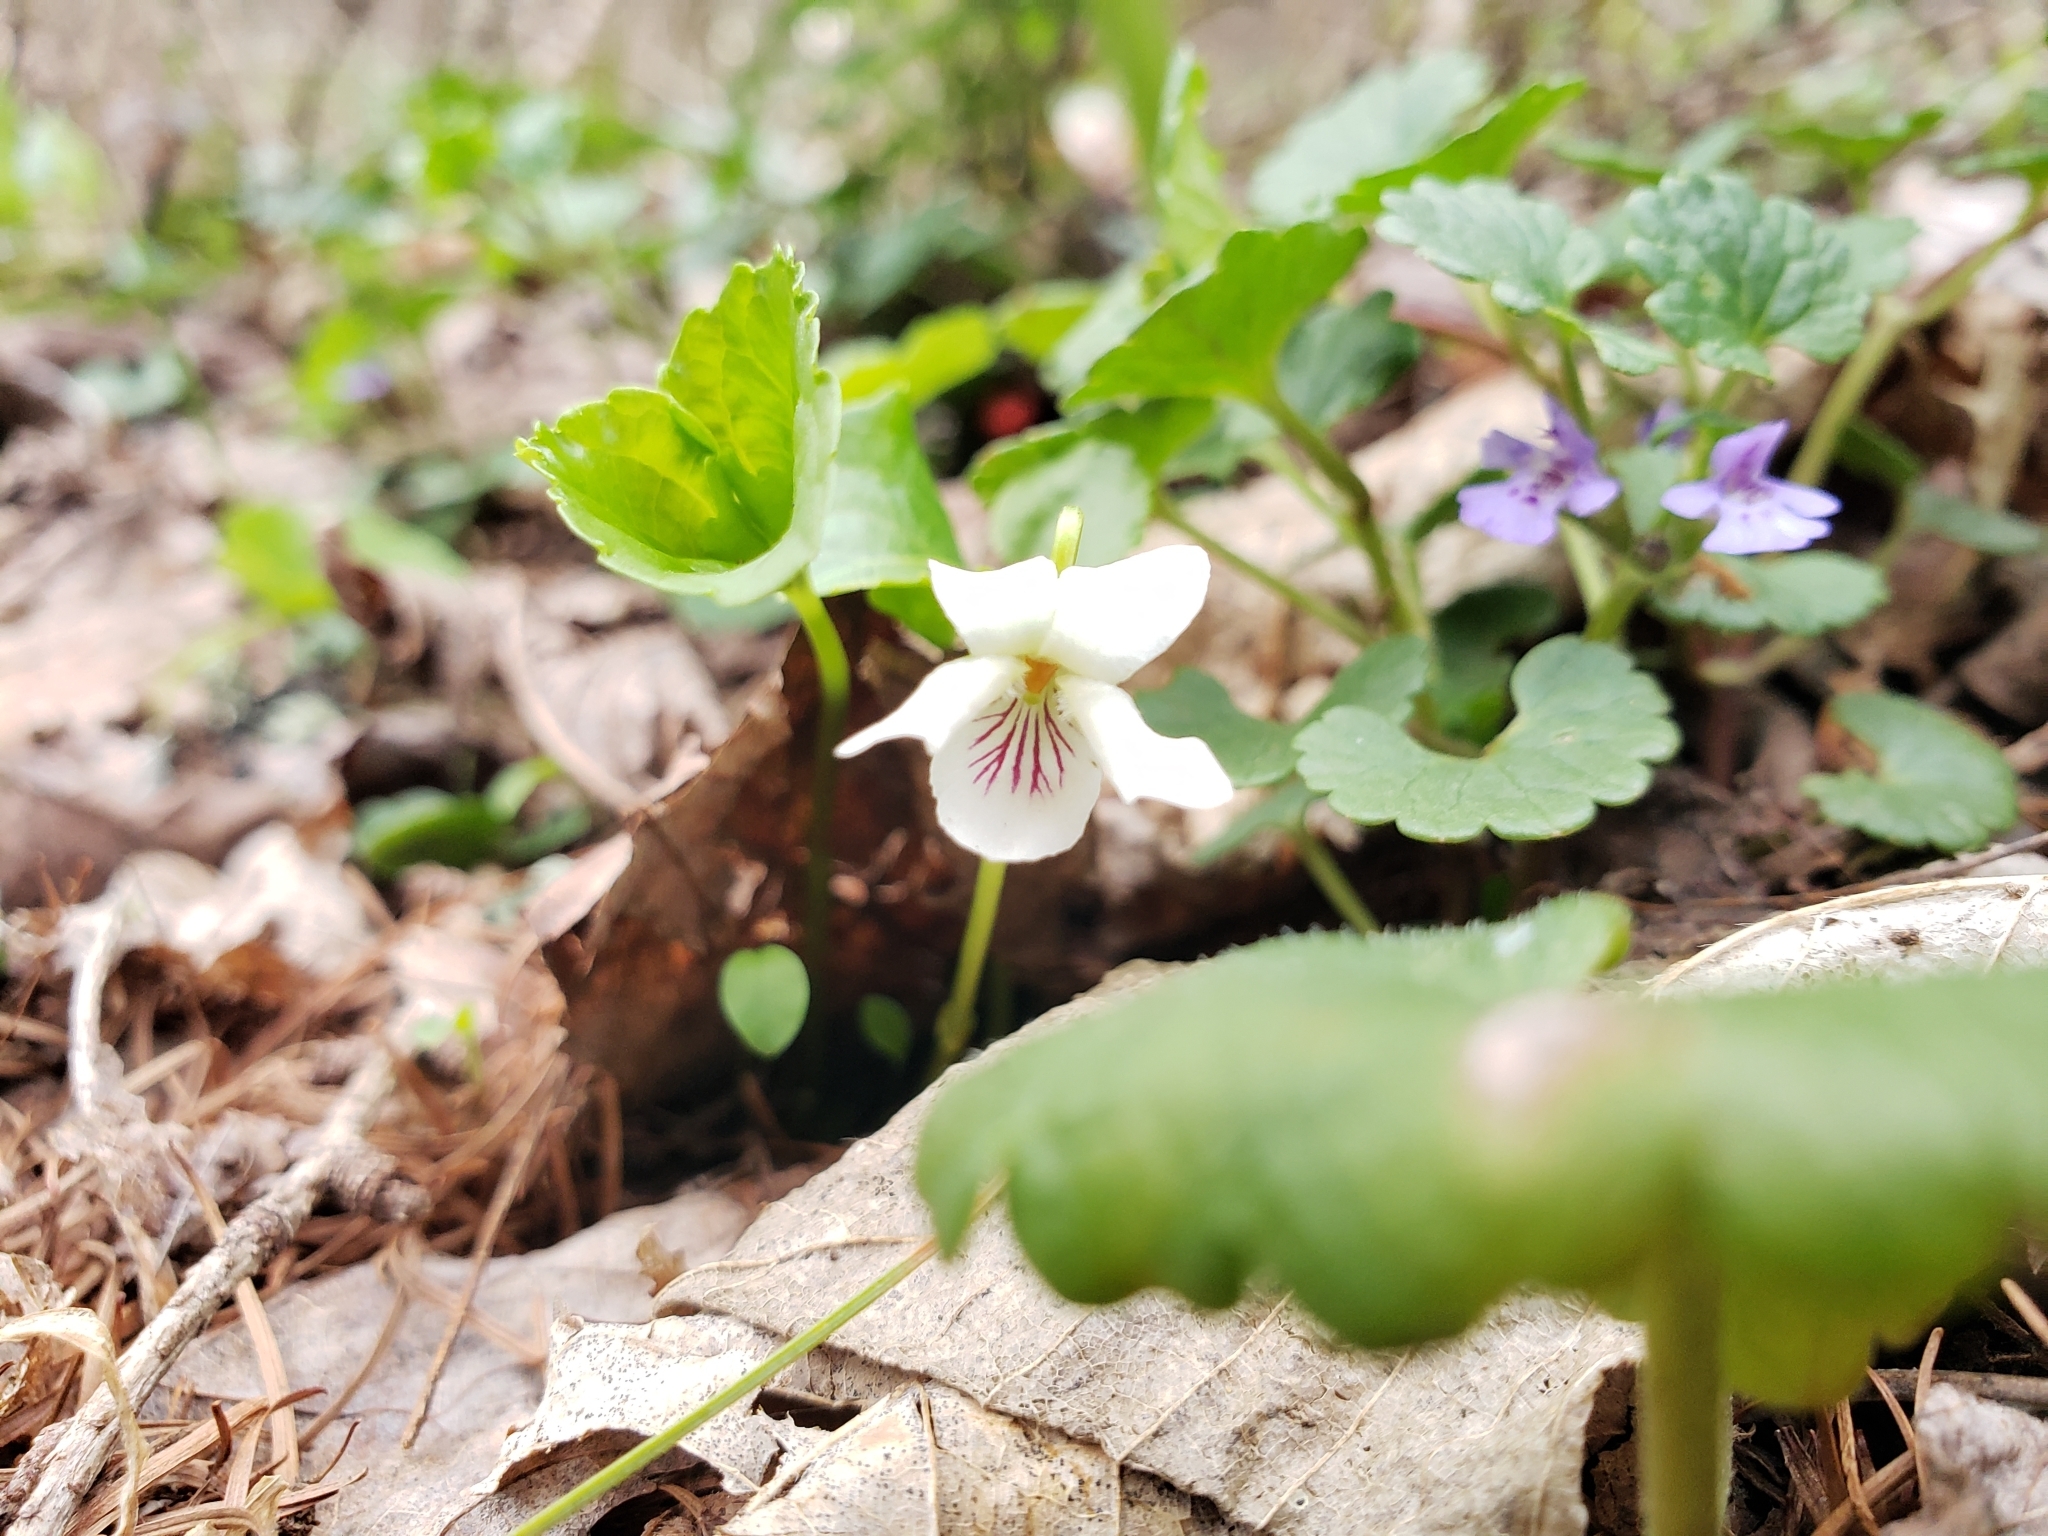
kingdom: Plantae
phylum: Tracheophyta
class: Magnoliopsida
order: Malpighiales
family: Violaceae
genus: Viola
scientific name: Viola incognita
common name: Largeleaf white violet
